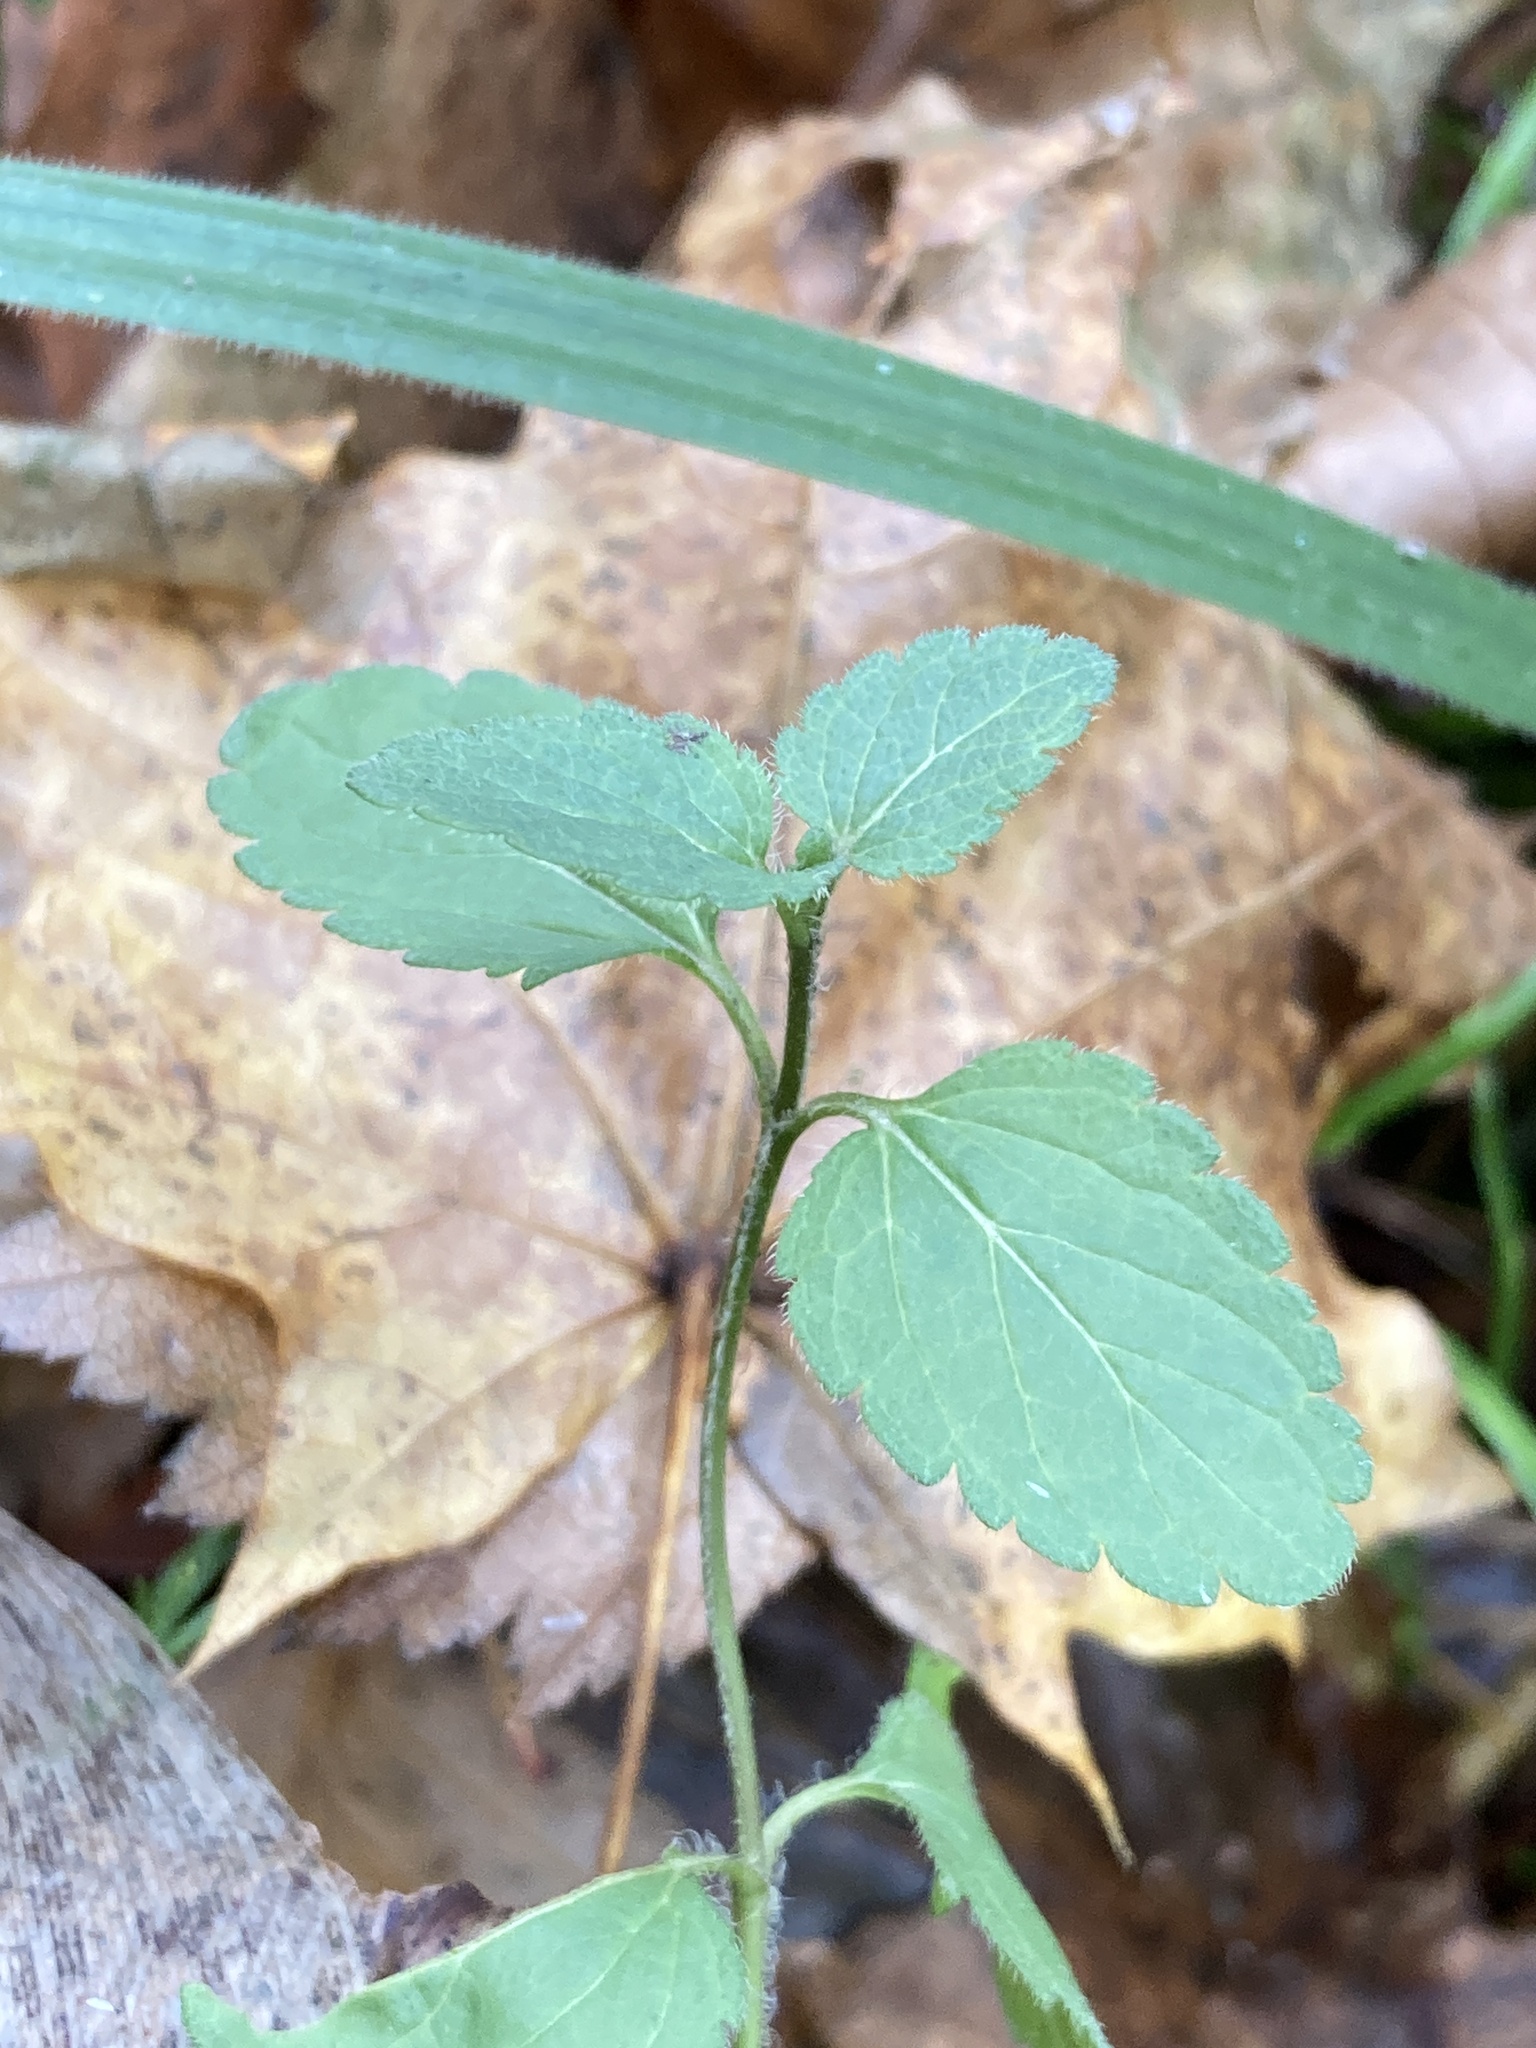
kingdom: Plantae
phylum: Tracheophyta
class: Magnoliopsida
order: Lamiales
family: Plantaginaceae
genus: Veronica
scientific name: Veronica chamaedrys
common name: Germander speedwell
